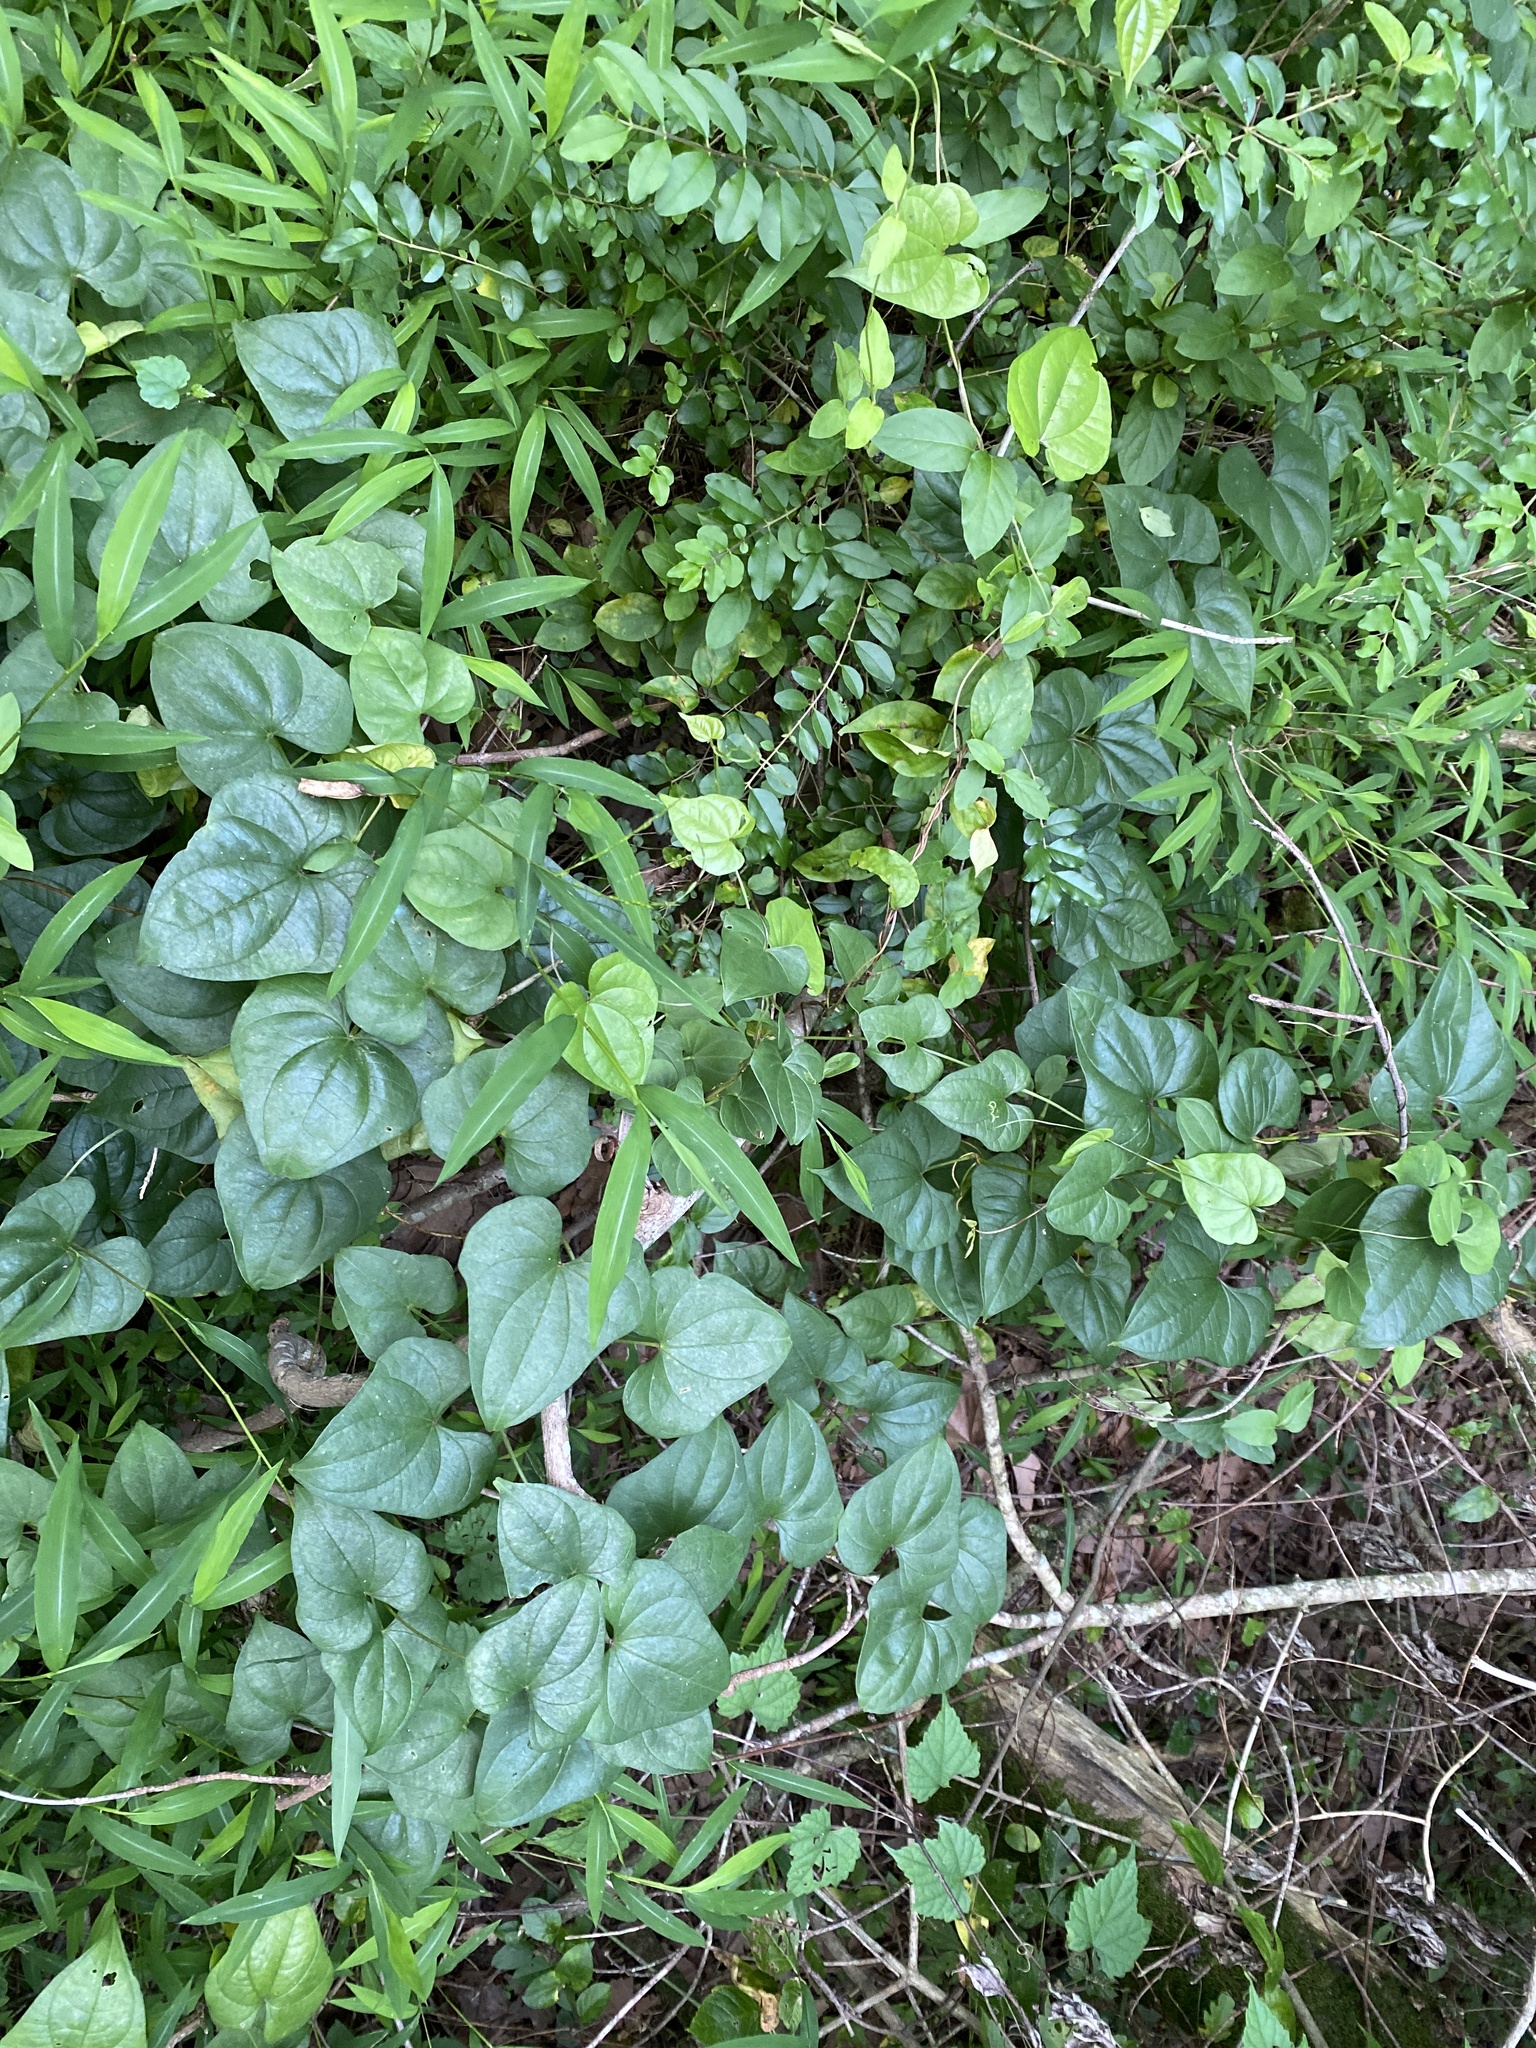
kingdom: Plantae
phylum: Tracheophyta
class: Liliopsida
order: Dioscoreales
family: Dioscoreaceae
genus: Dioscorea
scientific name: Dioscorea polystachya
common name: Chinese yam
